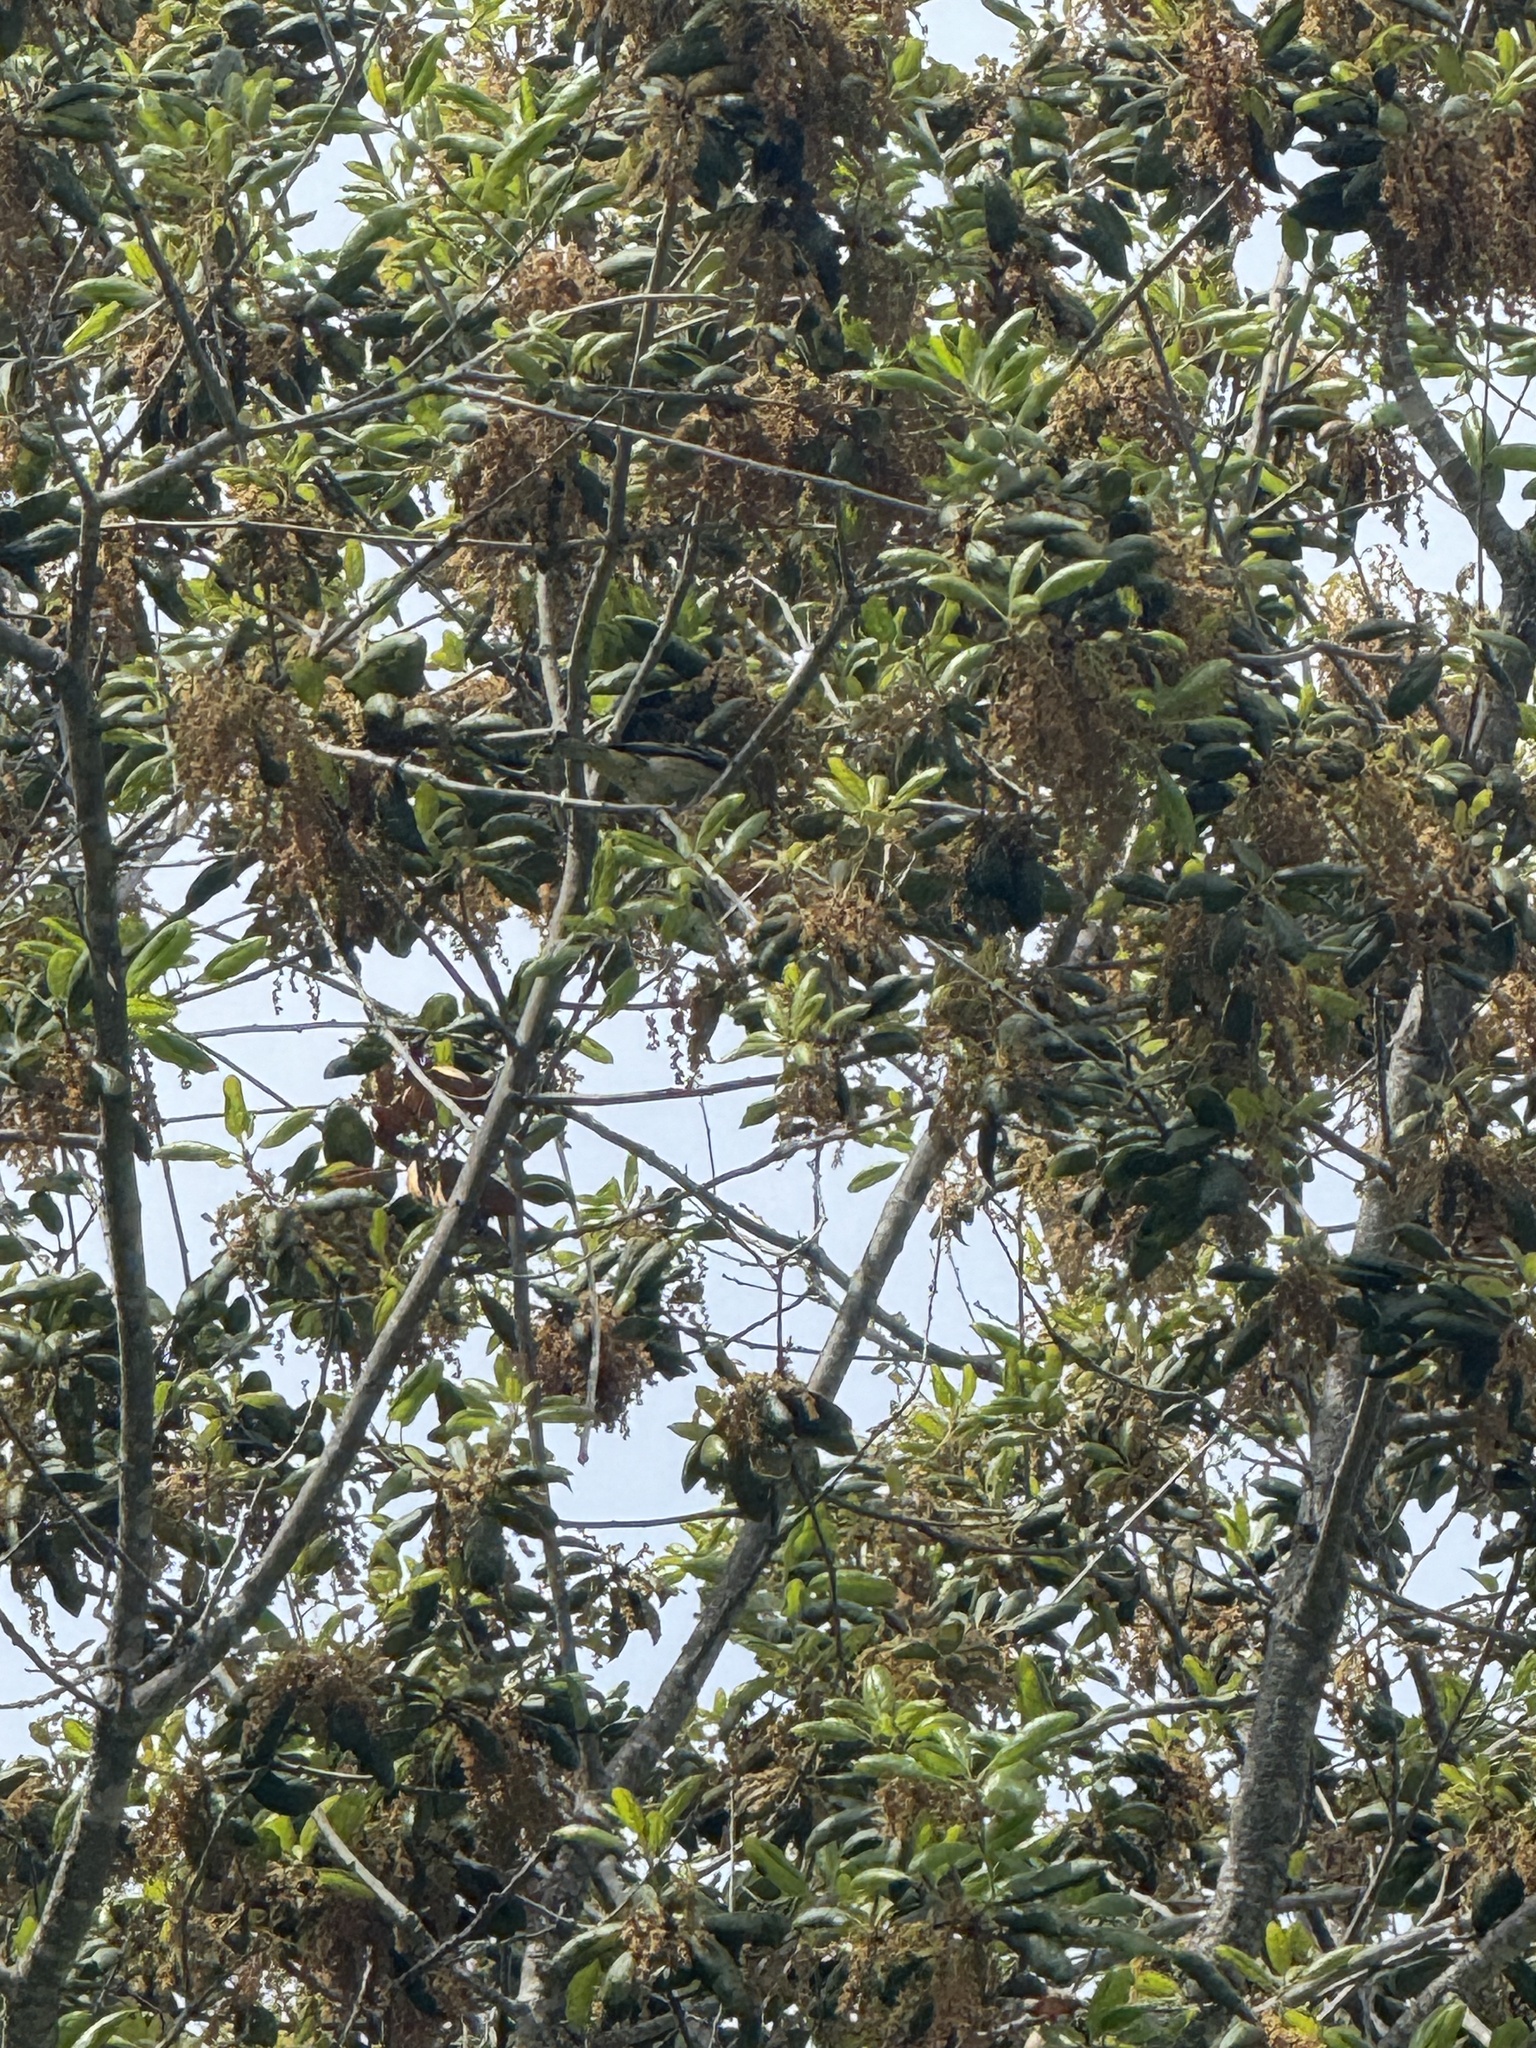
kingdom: Animalia
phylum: Chordata
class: Aves
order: Passeriformes
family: Fringillidae
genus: Spinus
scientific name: Spinus psaltria
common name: Lesser goldfinch
